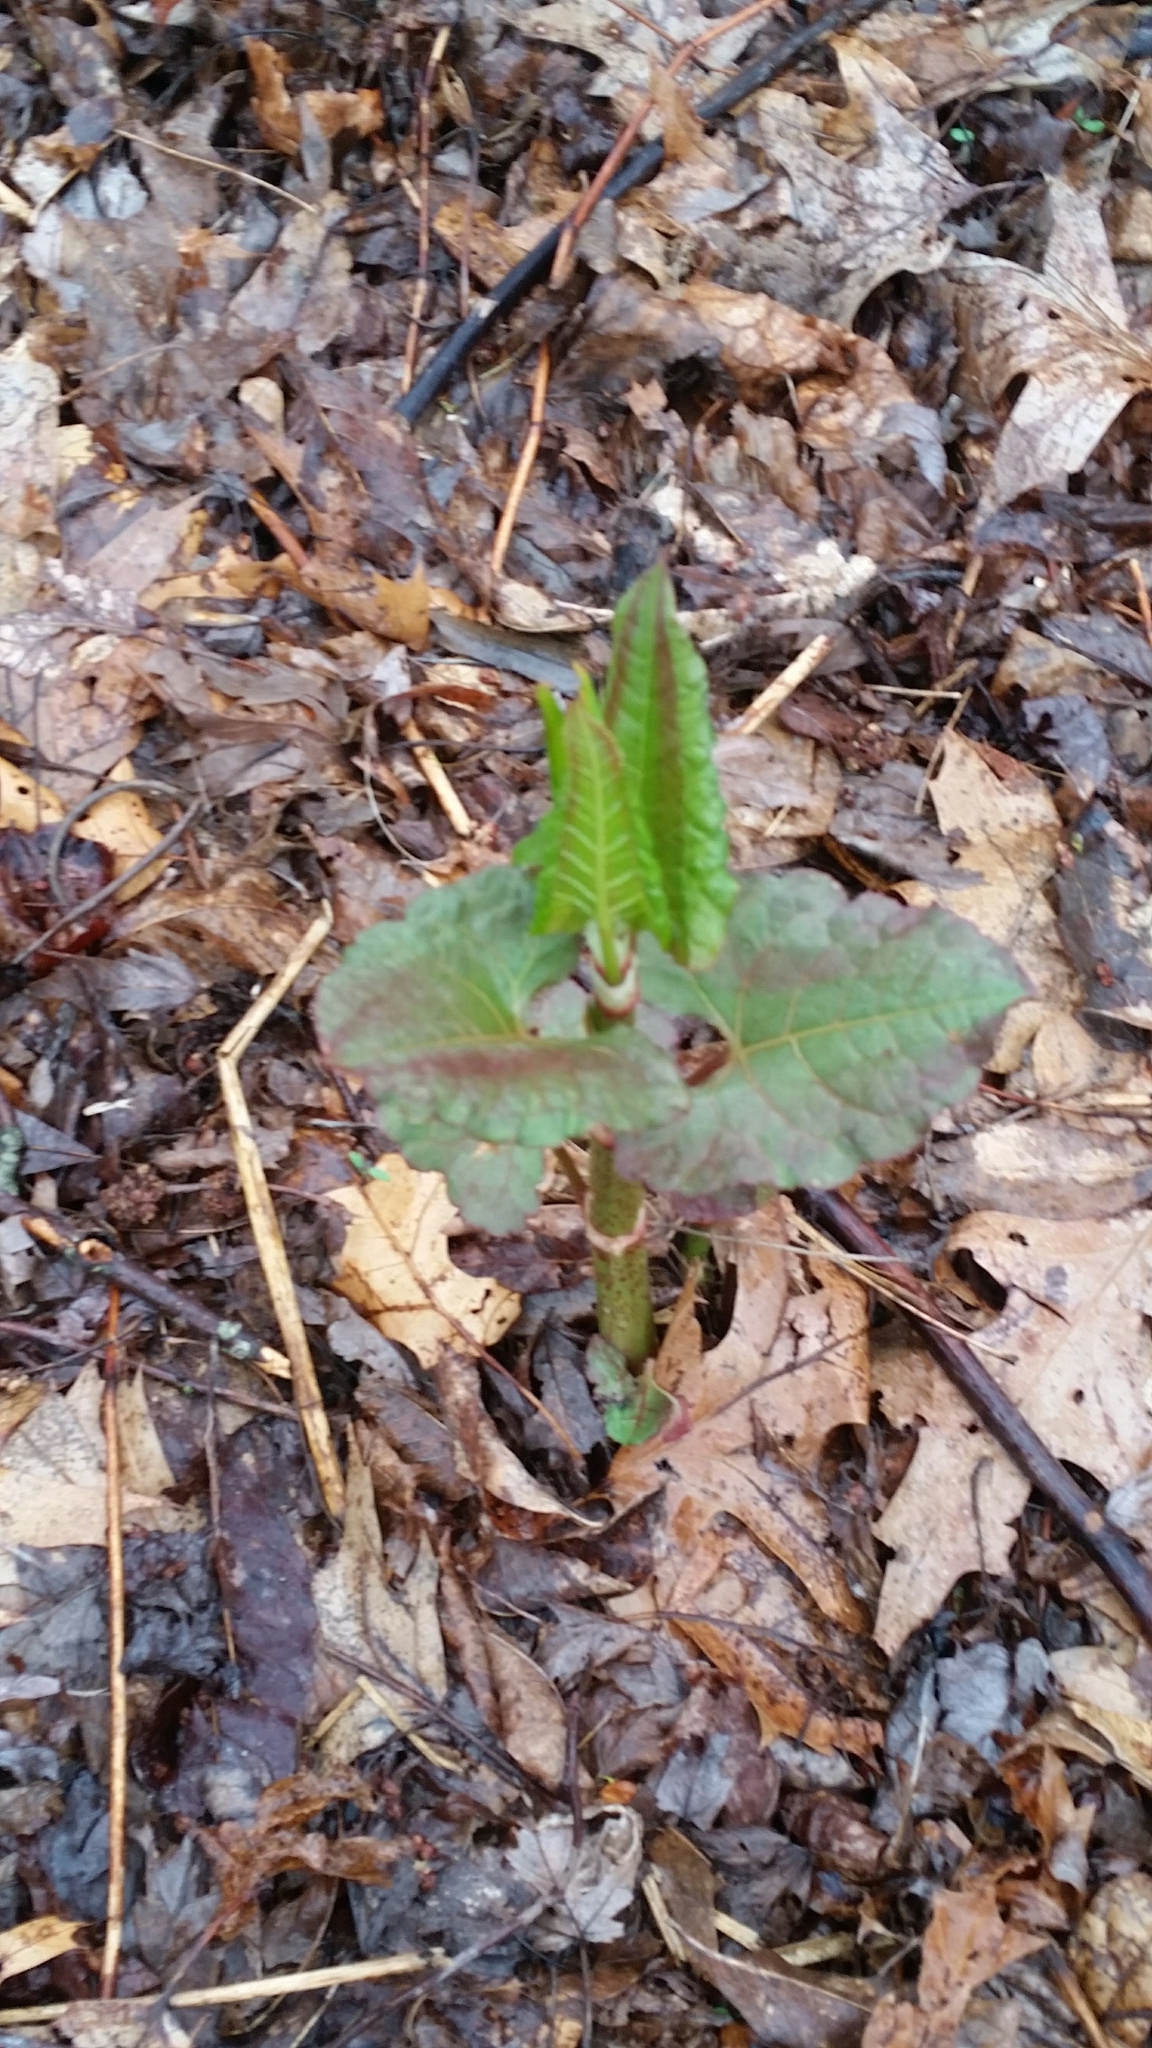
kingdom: Plantae
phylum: Tracheophyta
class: Magnoliopsida
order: Caryophyllales
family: Polygonaceae
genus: Reynoutria
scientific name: Reynoutria japonica
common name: Japanese knotweed
